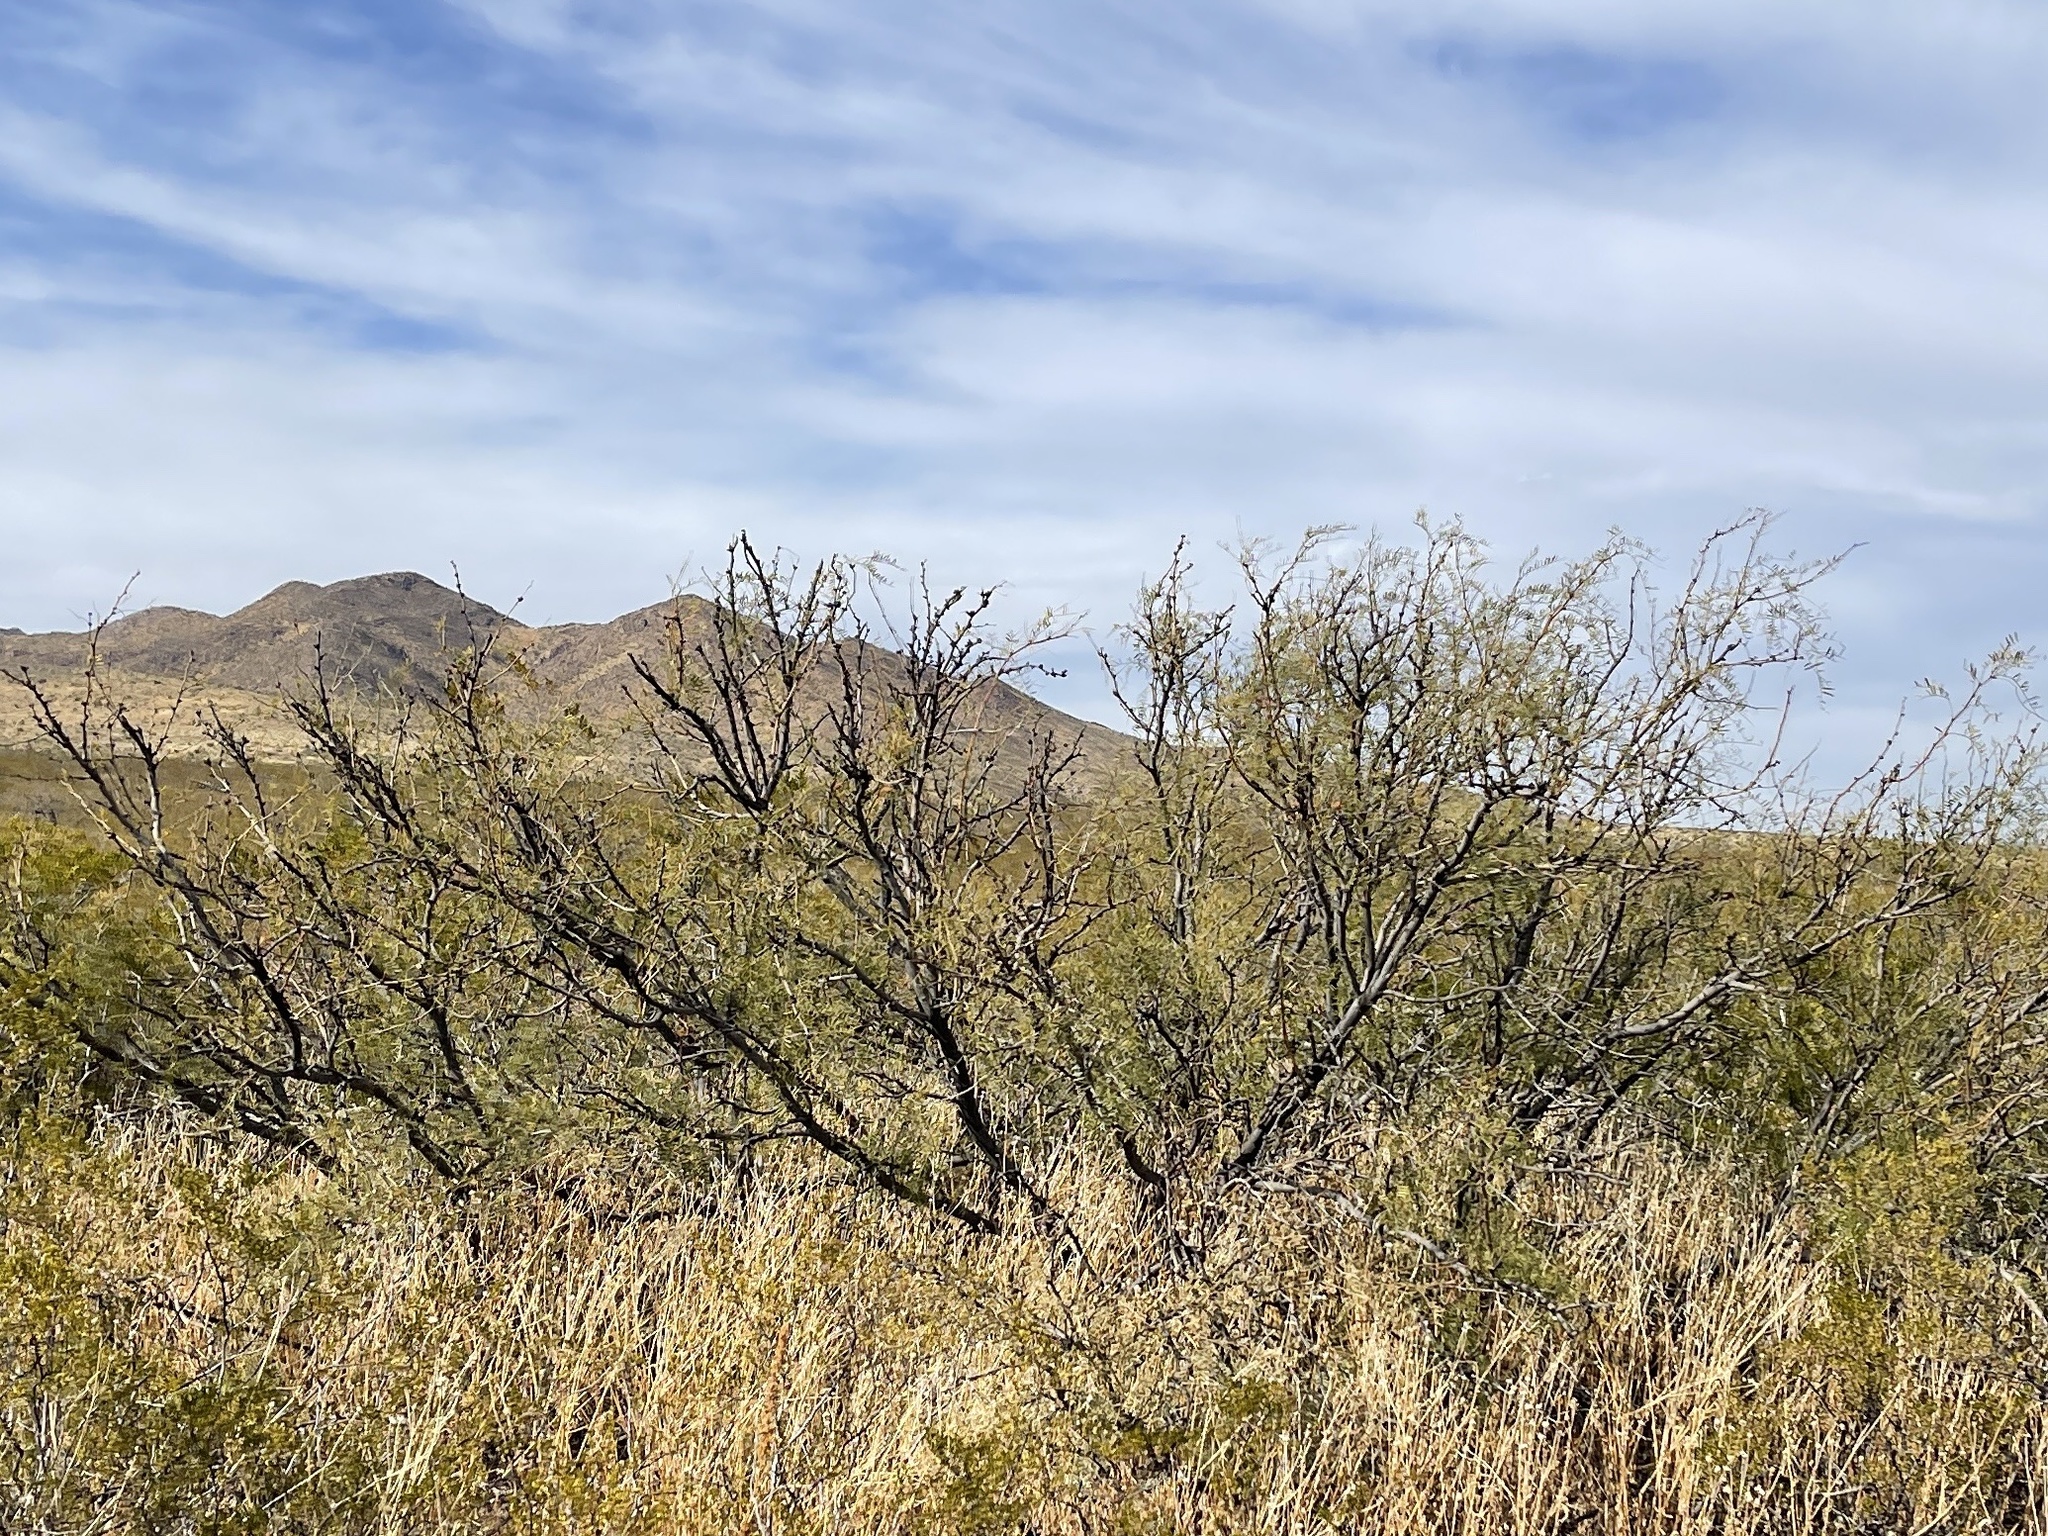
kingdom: Plantae
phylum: Tracheophyta
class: Magnoliopsida
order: Fabales
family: Fabaceae
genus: Prosopis
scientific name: Prosopis glandulosa
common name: Honey mesquite
